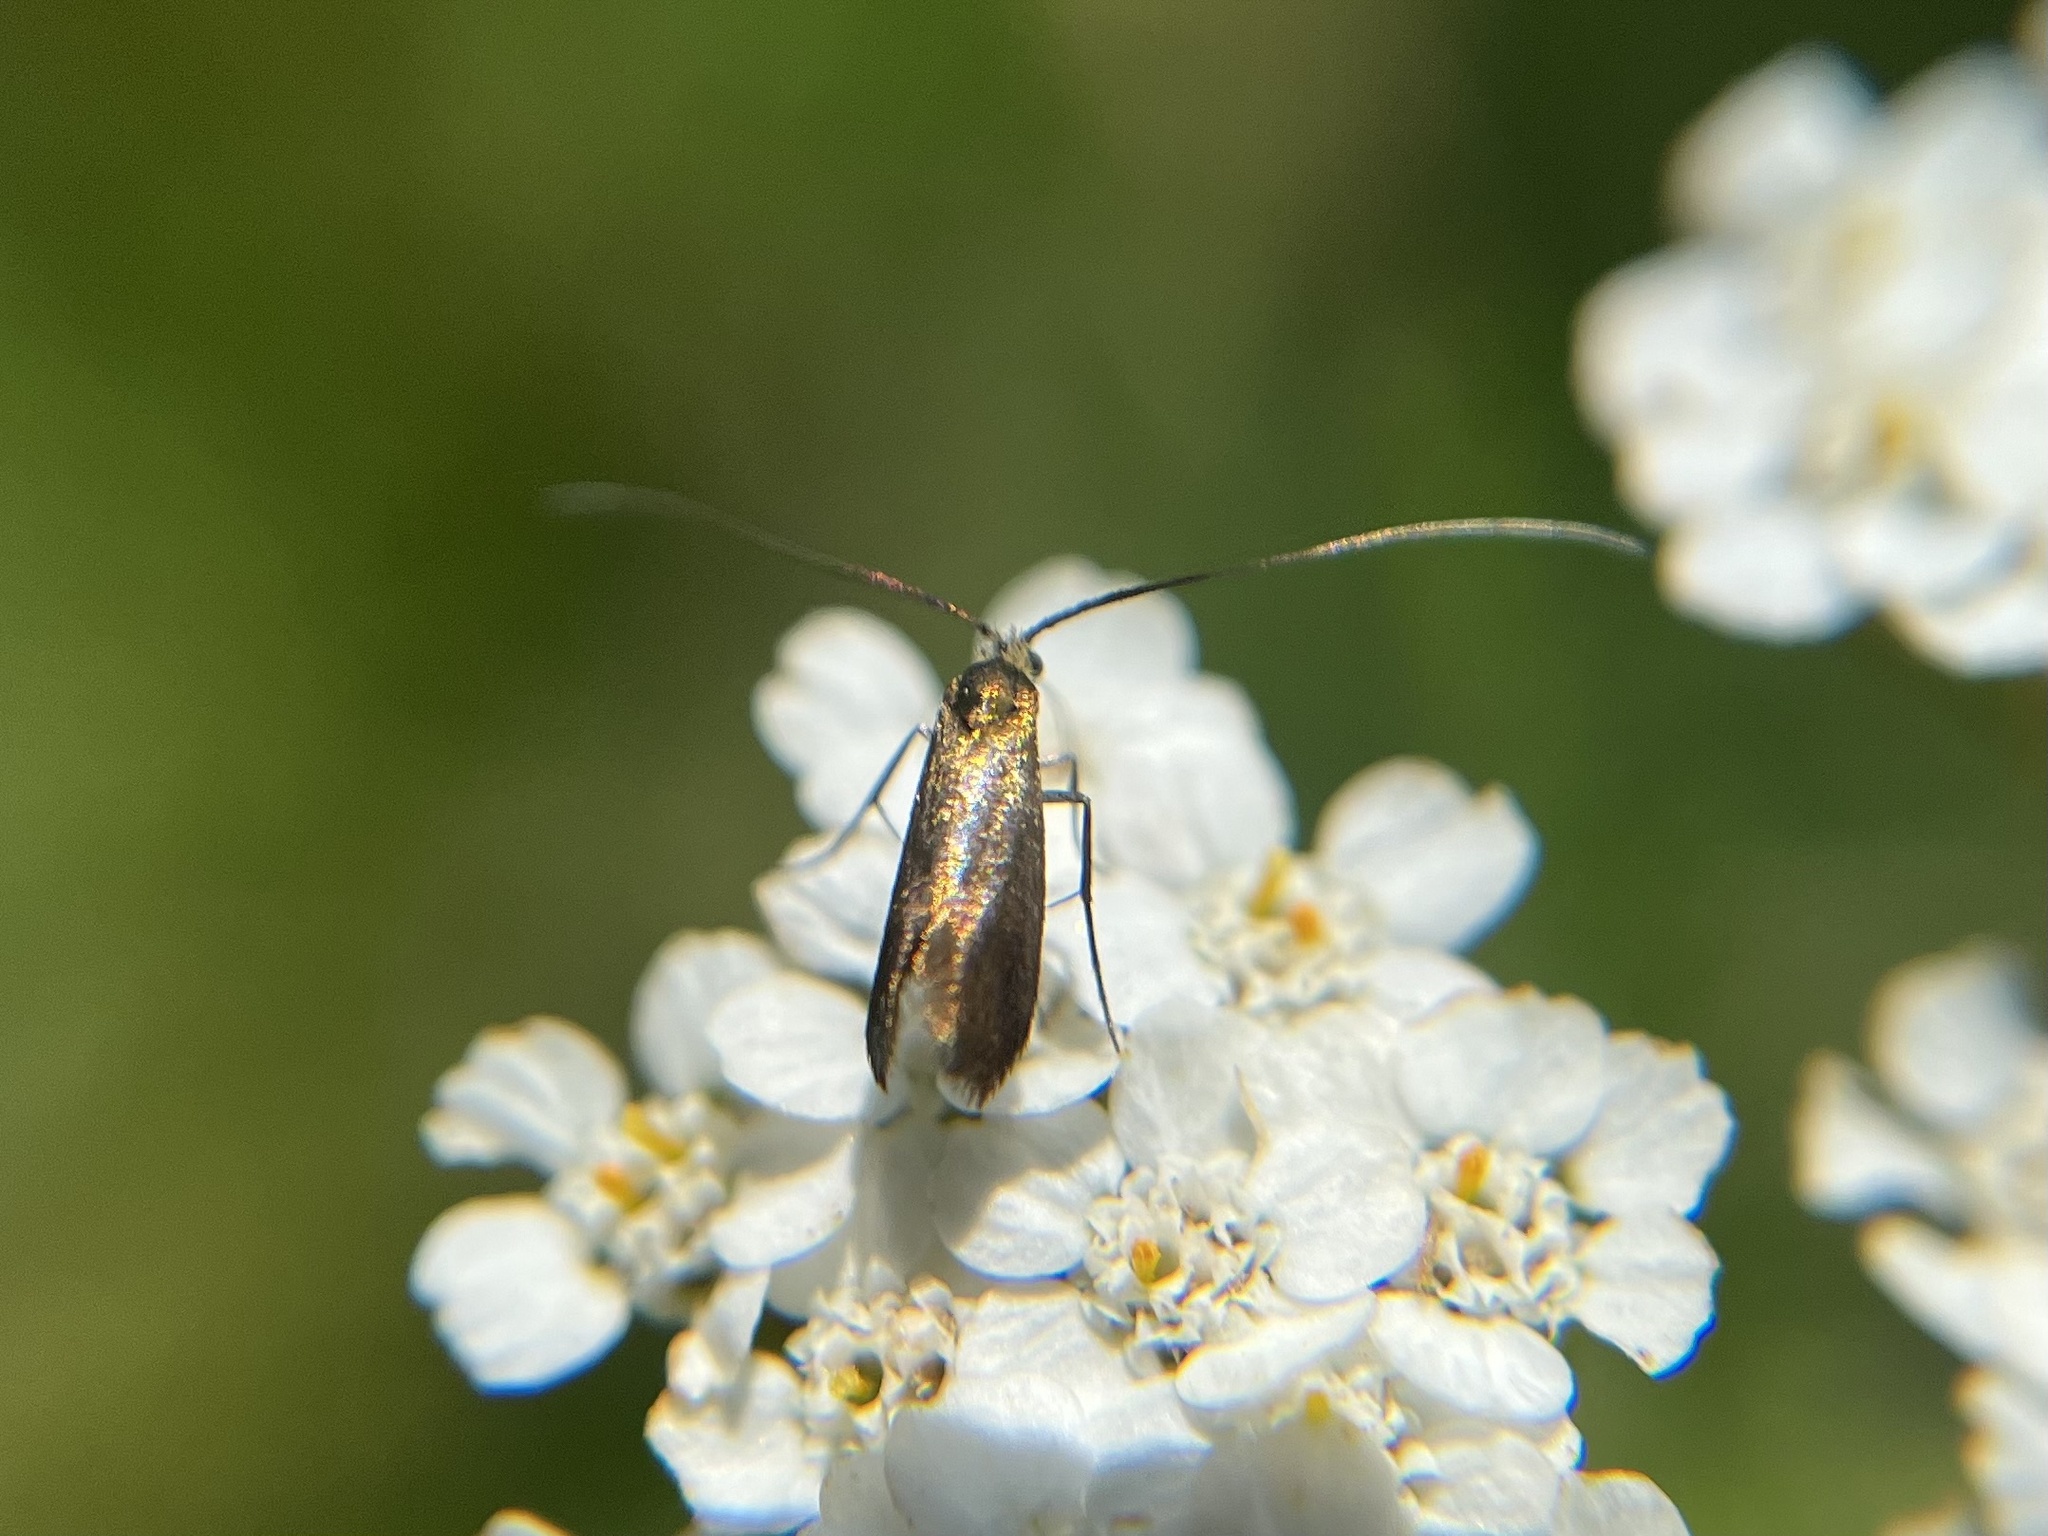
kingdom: Animalia
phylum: Arthropoda
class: Insecta
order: Lepidoptera
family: Adelidae
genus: Adela
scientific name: Adela violella
